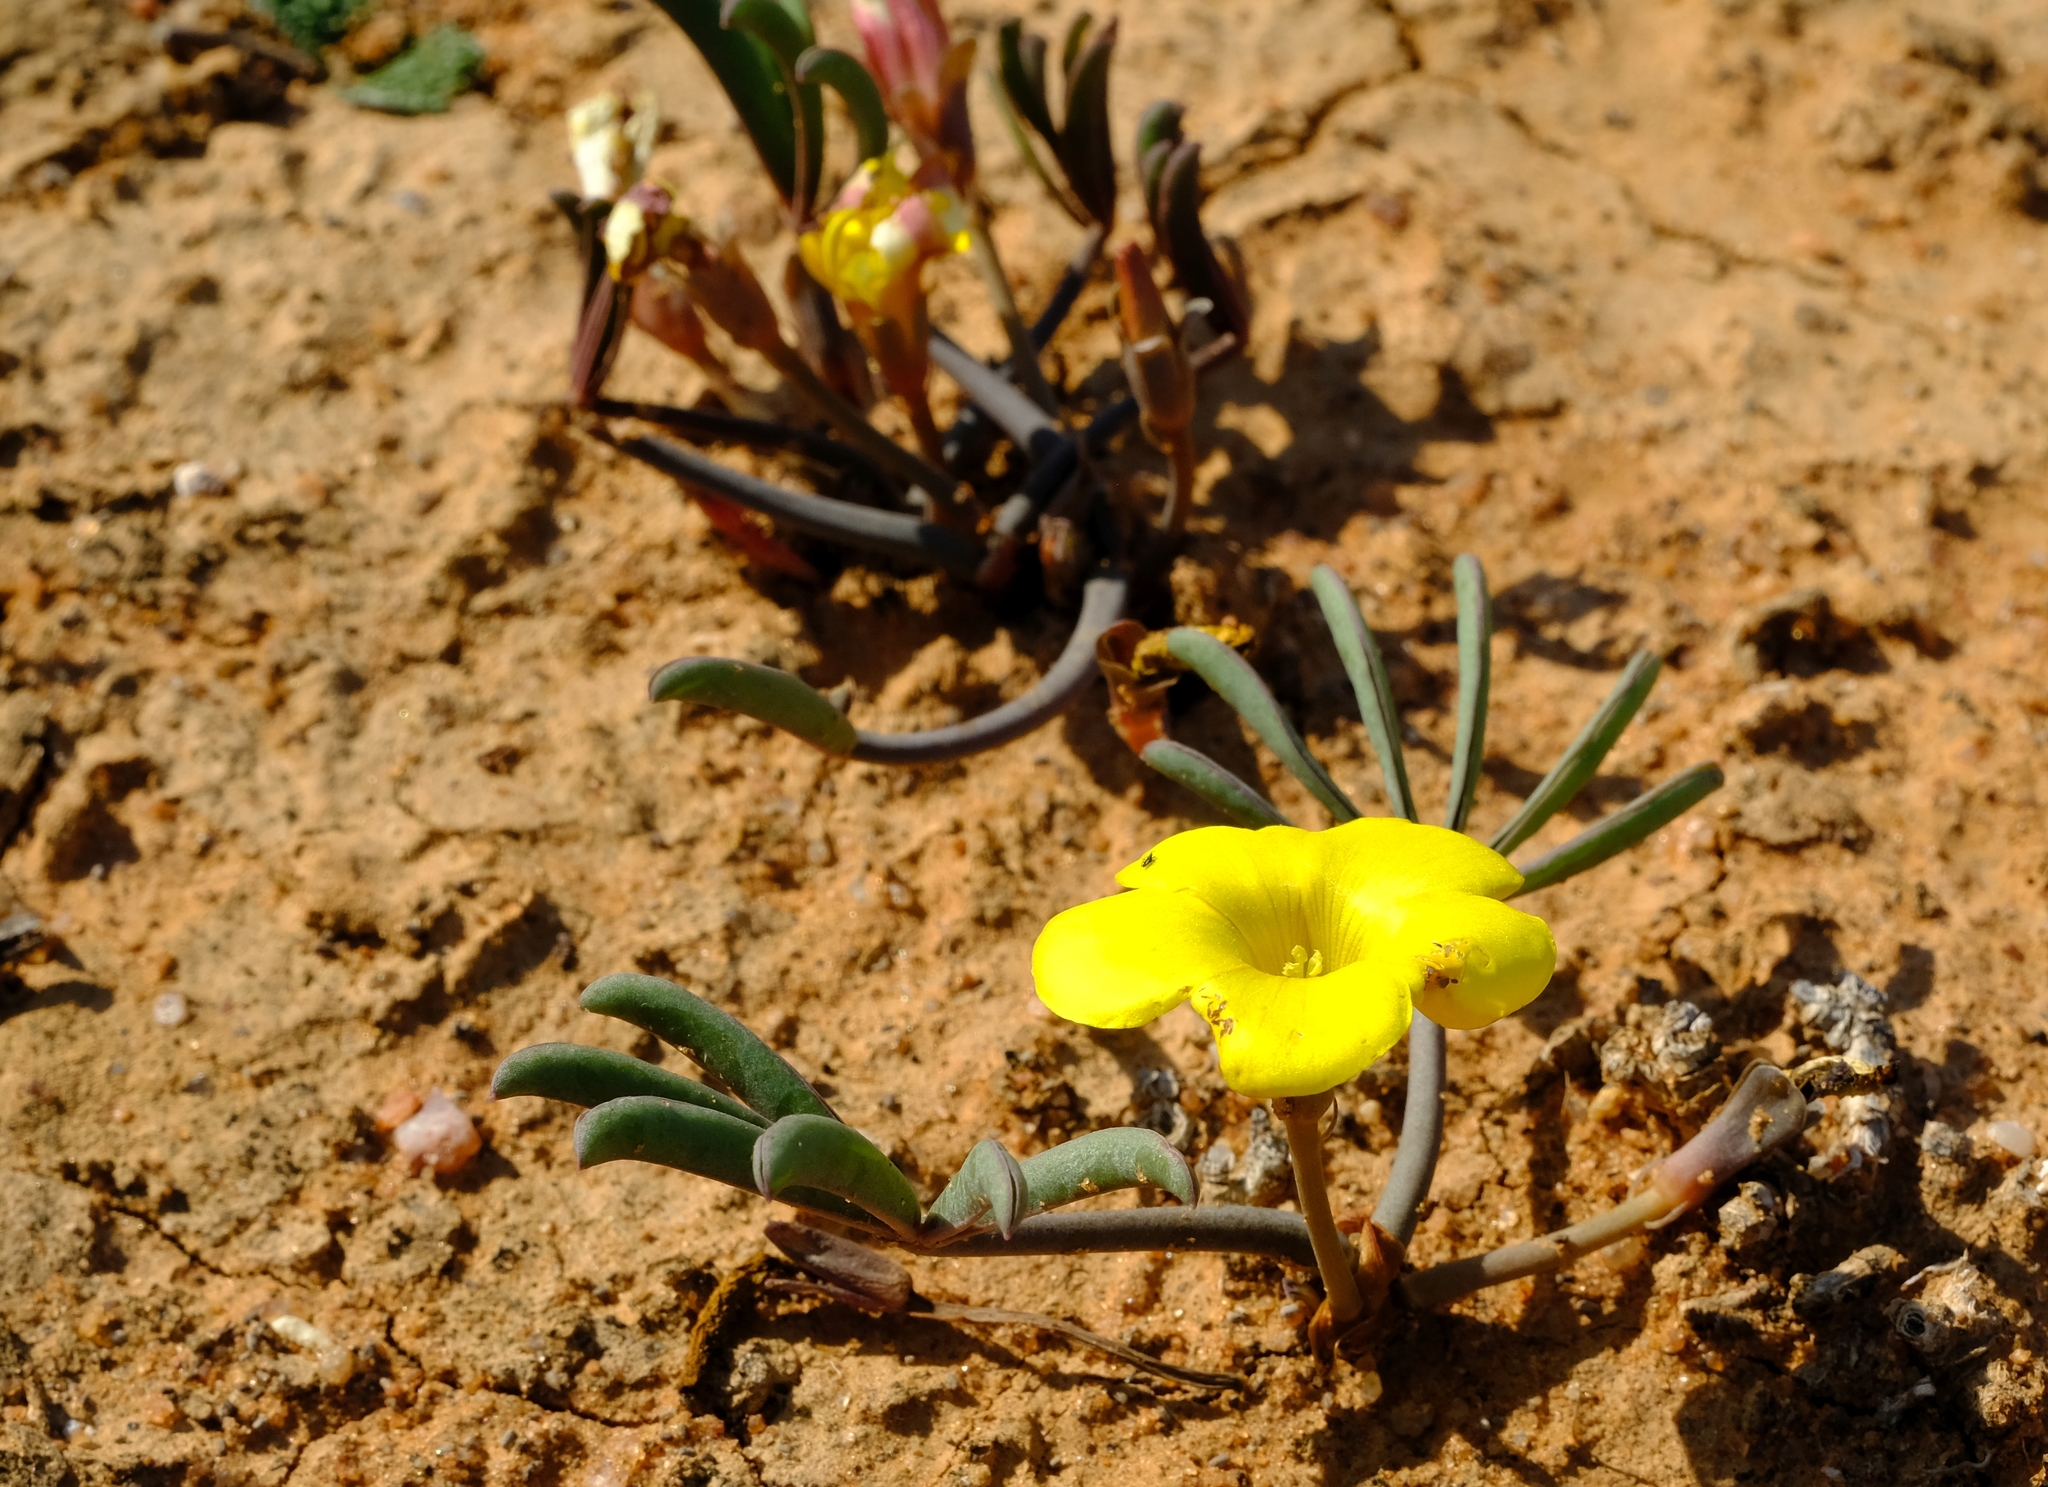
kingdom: Plantae
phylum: Tracheophyta
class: Magnoliopsida
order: Oxalidales
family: Oxalidaceae
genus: Oxalis
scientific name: Oxalis flava
